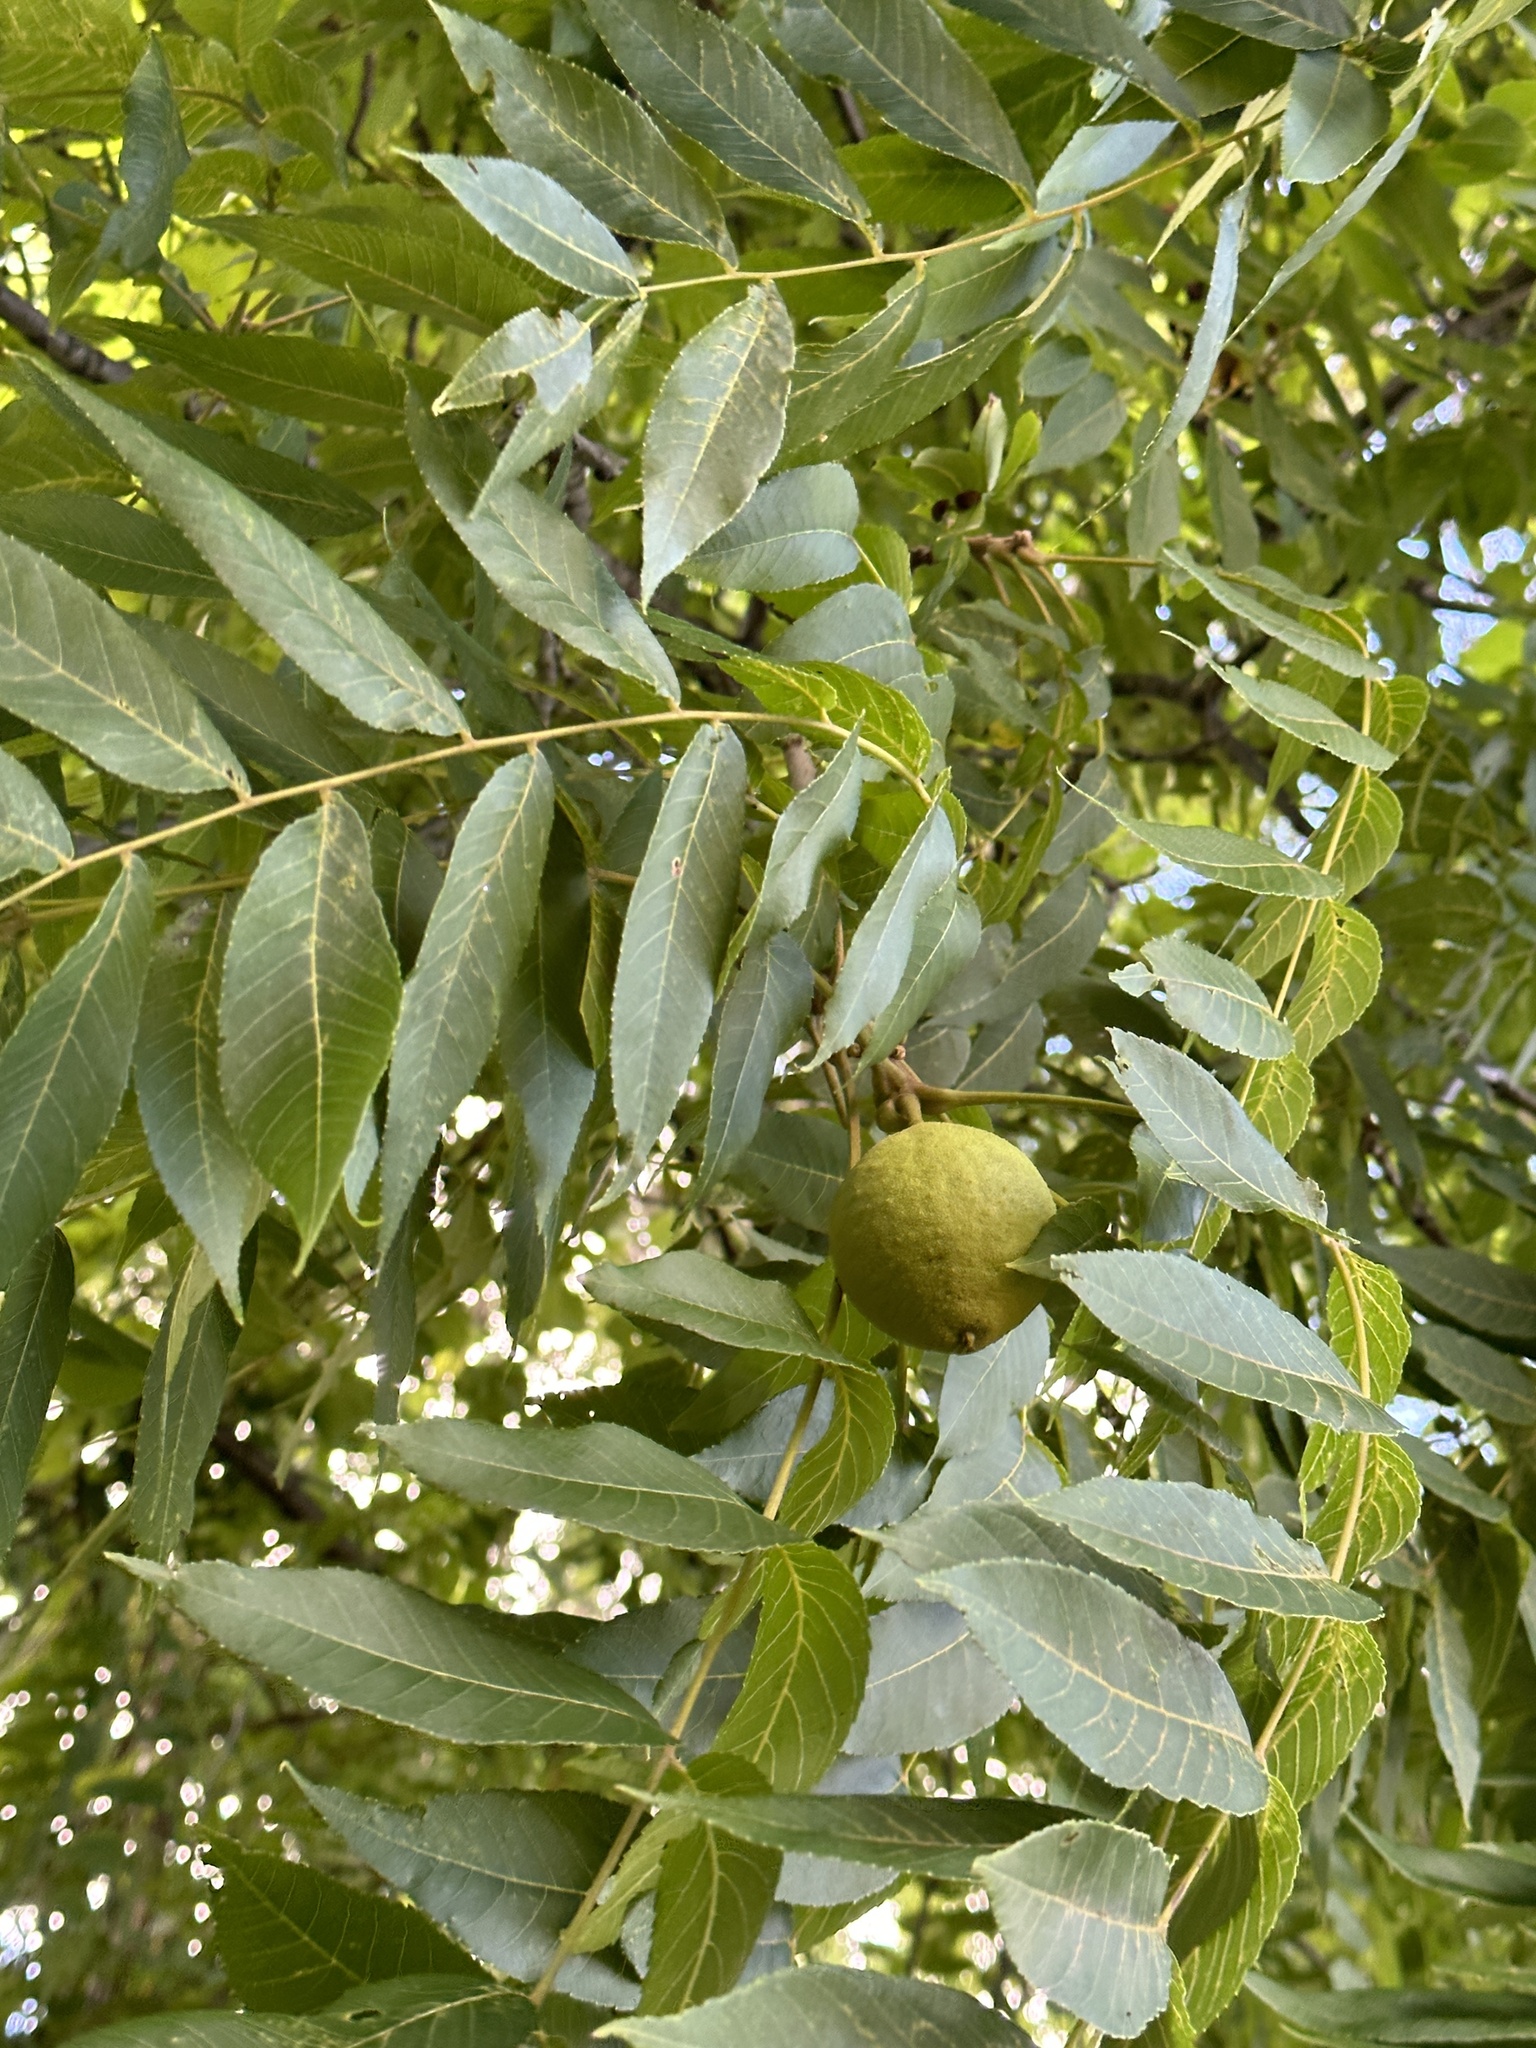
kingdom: Plantae
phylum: Tracheophyta
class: Magnoliopsida
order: Fagales
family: Juglandaceae
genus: Juglans
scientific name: Juglans nigra
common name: Black walnut
